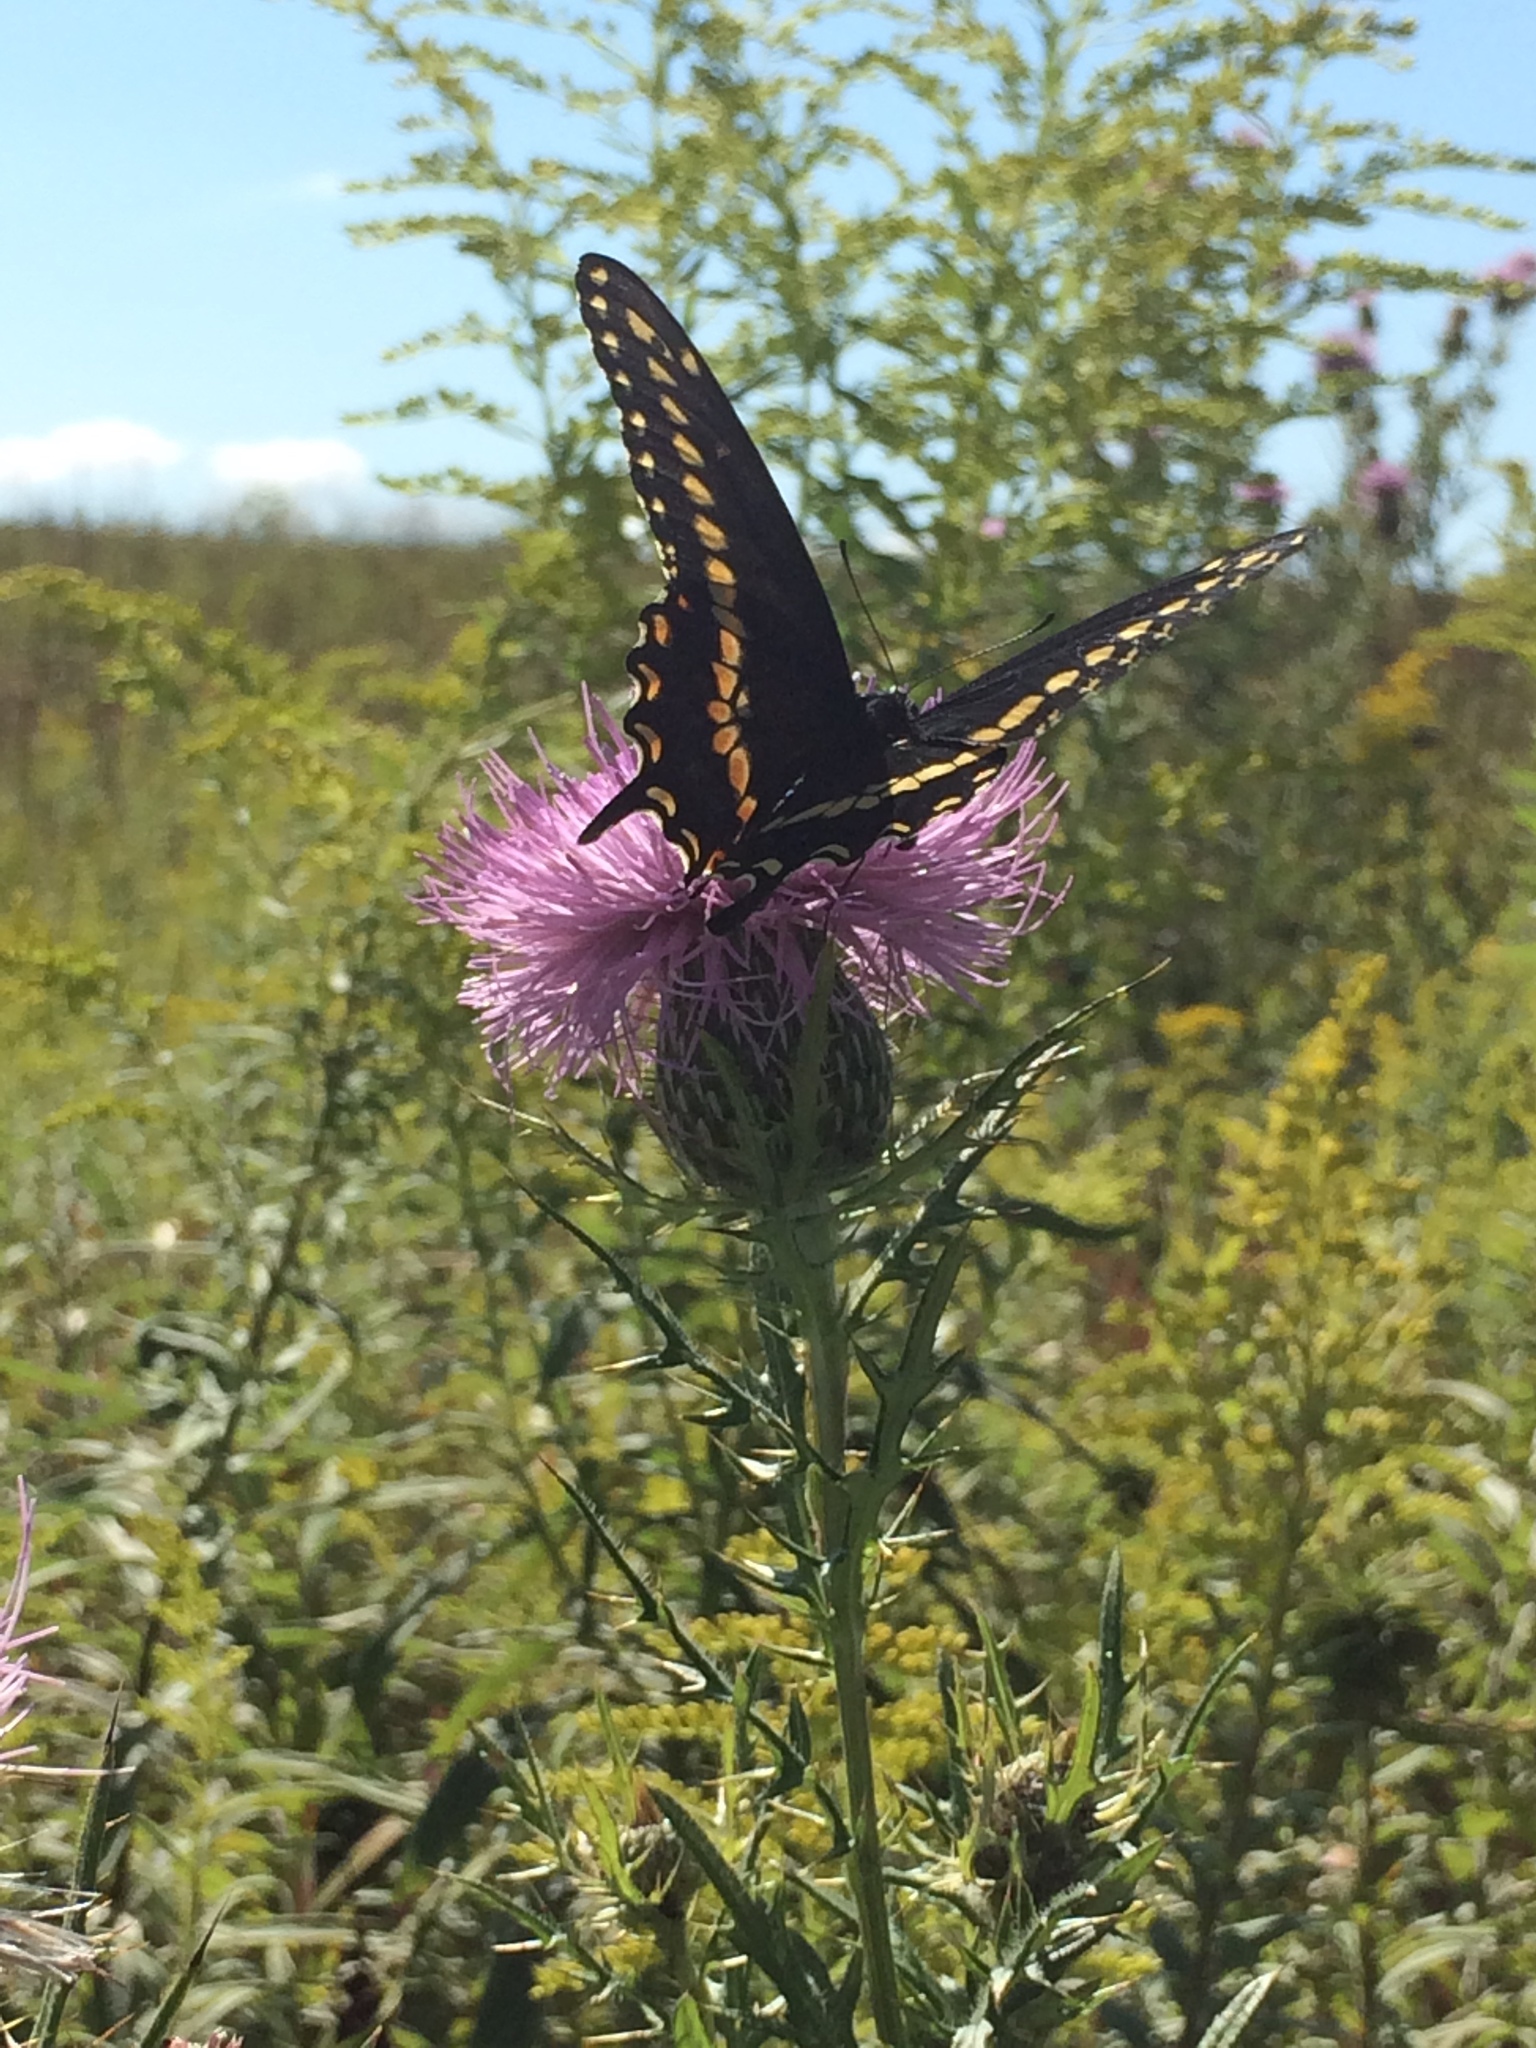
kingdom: Animalia
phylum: Arthropoda
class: Insecta
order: Lepidoptera
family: Papilionidae
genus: Papilio
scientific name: Papilio polyxenes
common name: Black swallowtail
